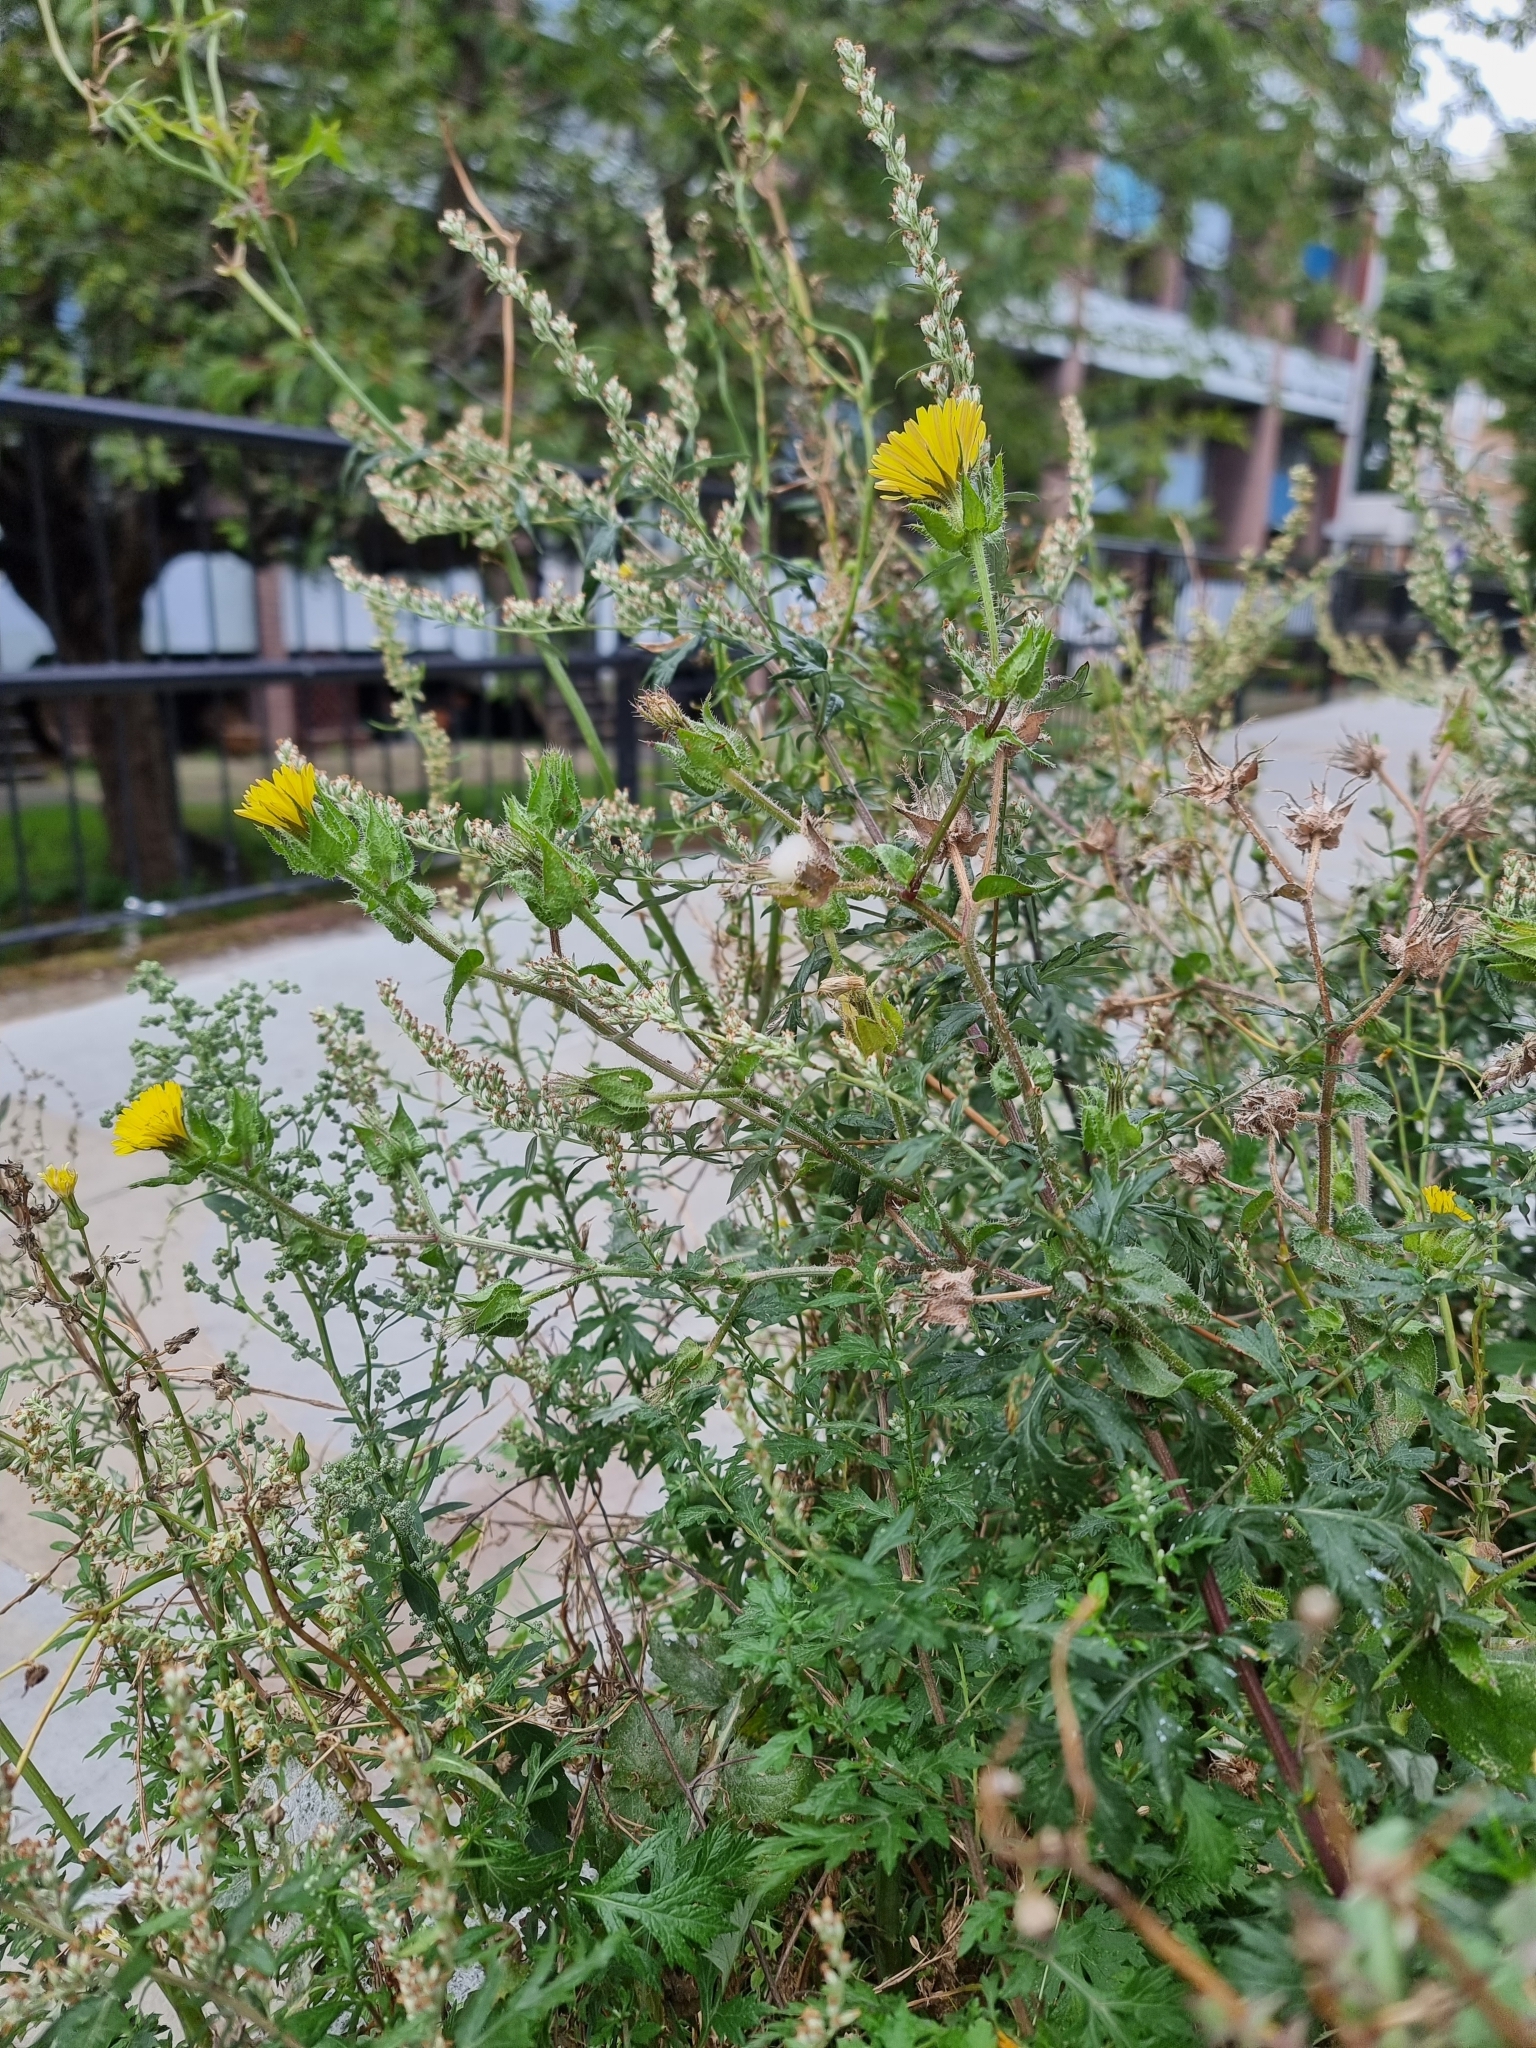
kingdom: Plantae
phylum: Tracheophyta
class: Magnoliopsida
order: Asterales
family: Asteraceae
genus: Helminthotheca
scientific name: Helminthotheca echioides
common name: Ox-tongue
